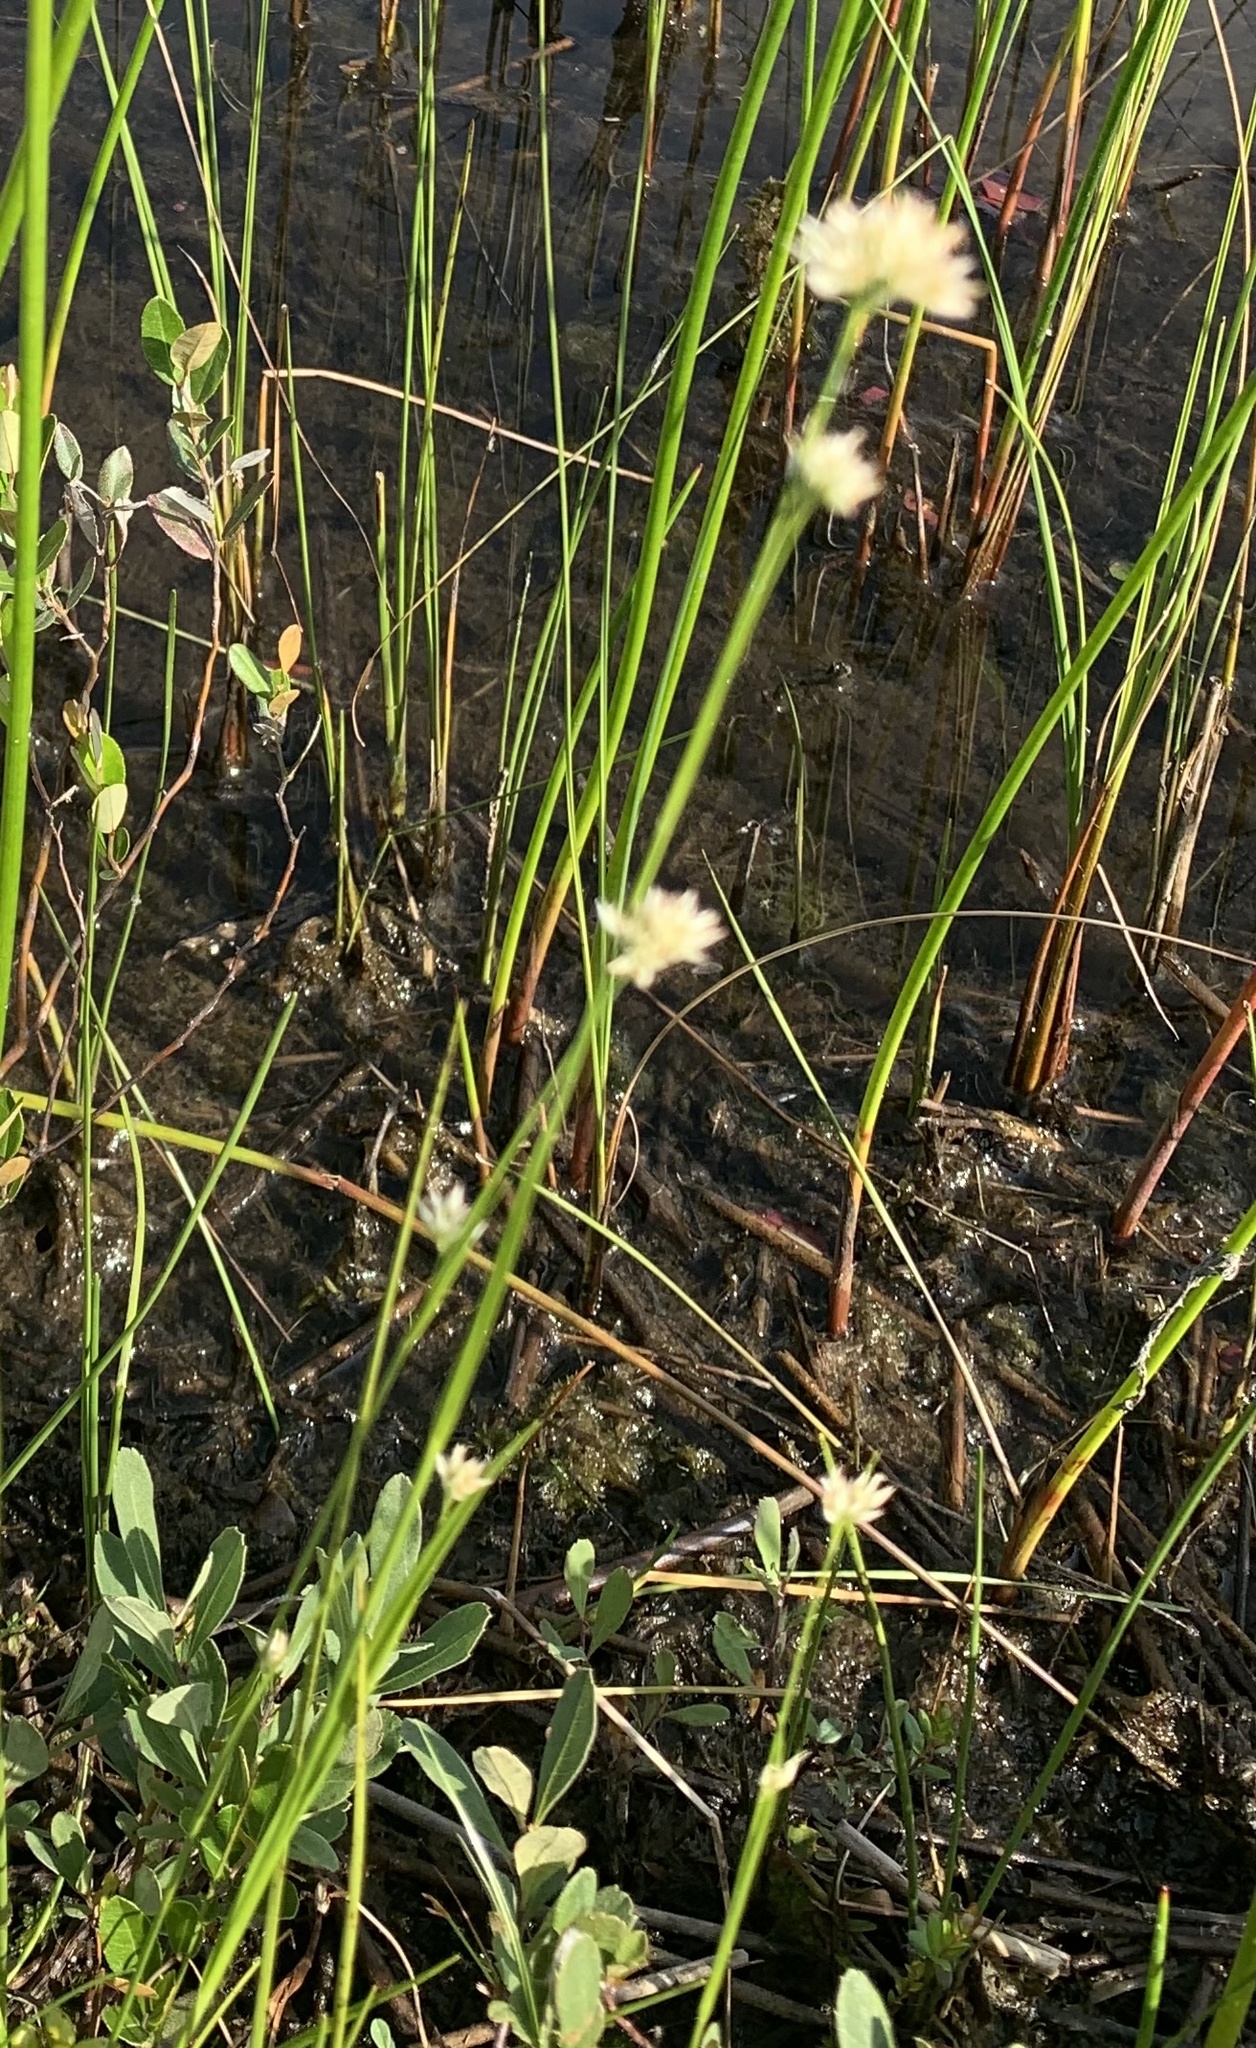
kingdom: Plantae
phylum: Tracheophyta
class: Liliopsida
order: Poales
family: Cyperaceae
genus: Rhynchospora
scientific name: Rhynchospora alba
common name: White beak-sedge
